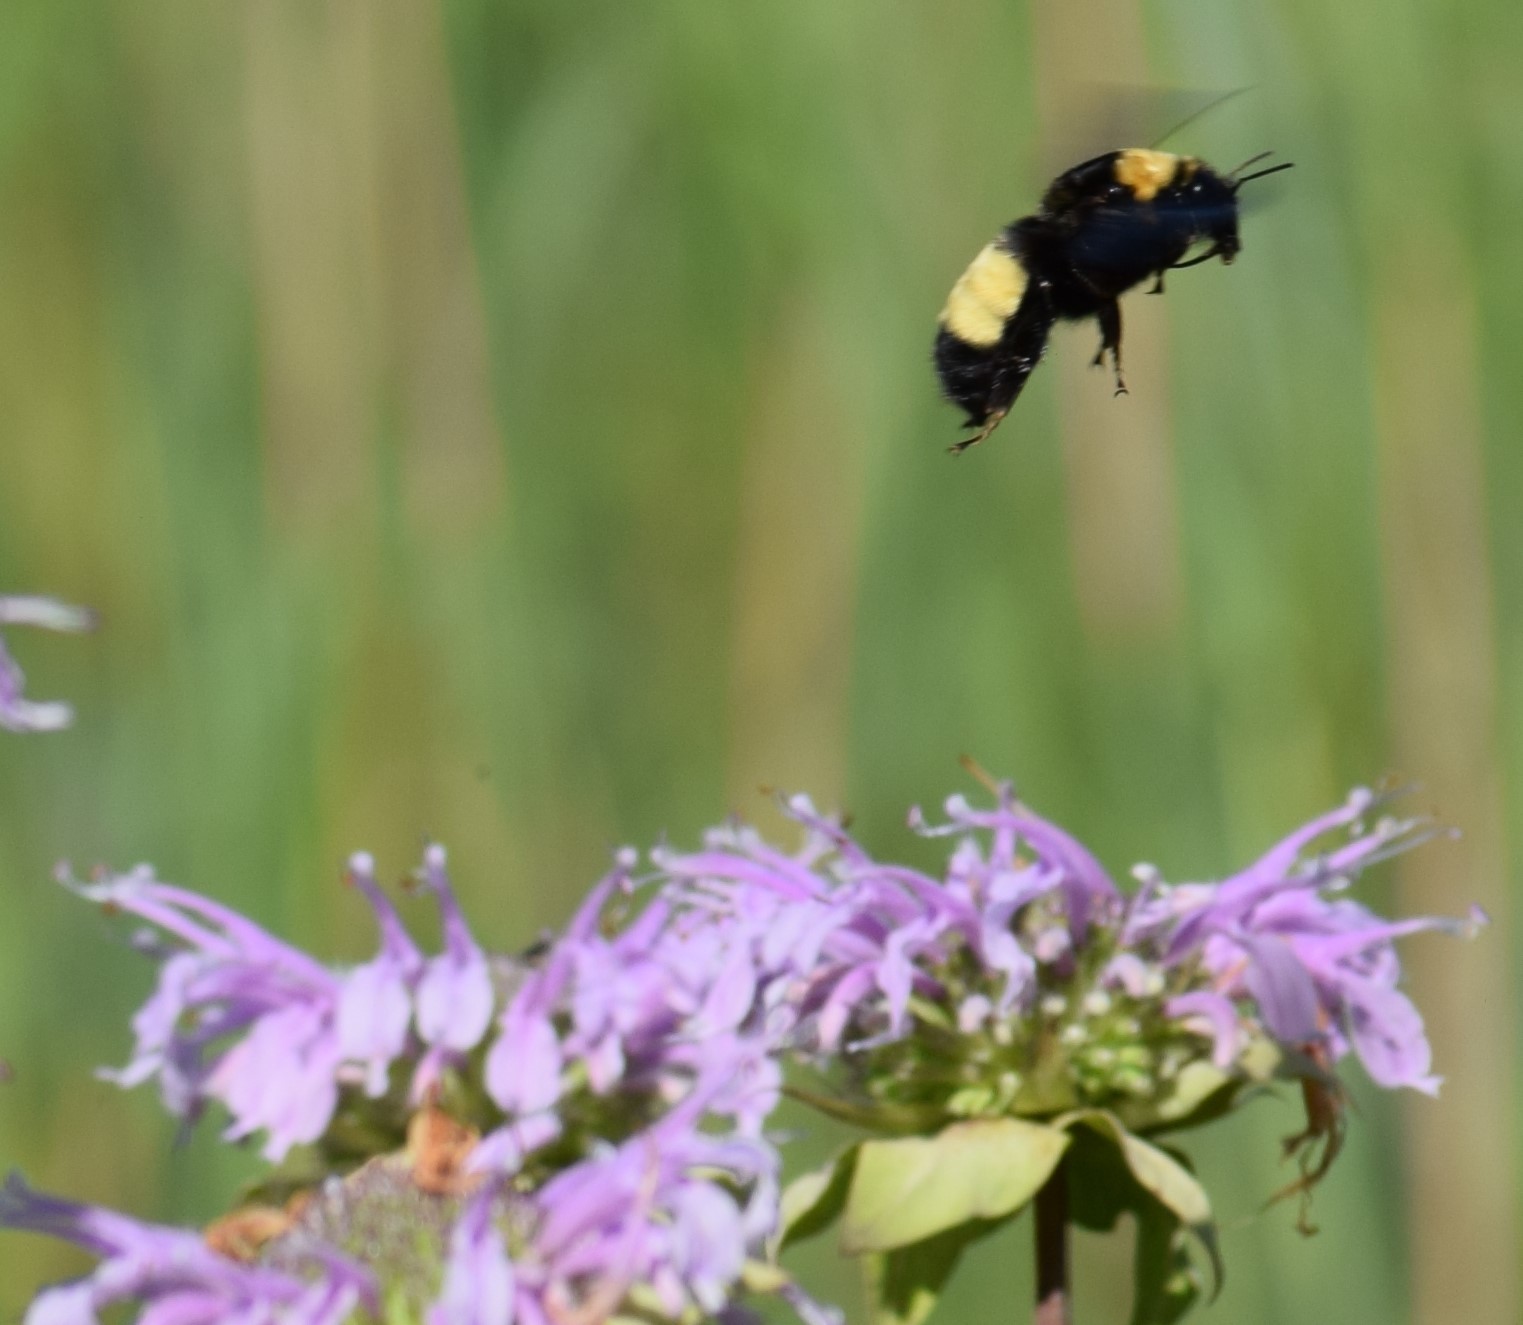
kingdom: Animalia
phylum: Arthropoda
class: Insecta
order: Hymenoptera
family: Apidae
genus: Bombus
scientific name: Bombus auricomus
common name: Black and gold bumble bee
